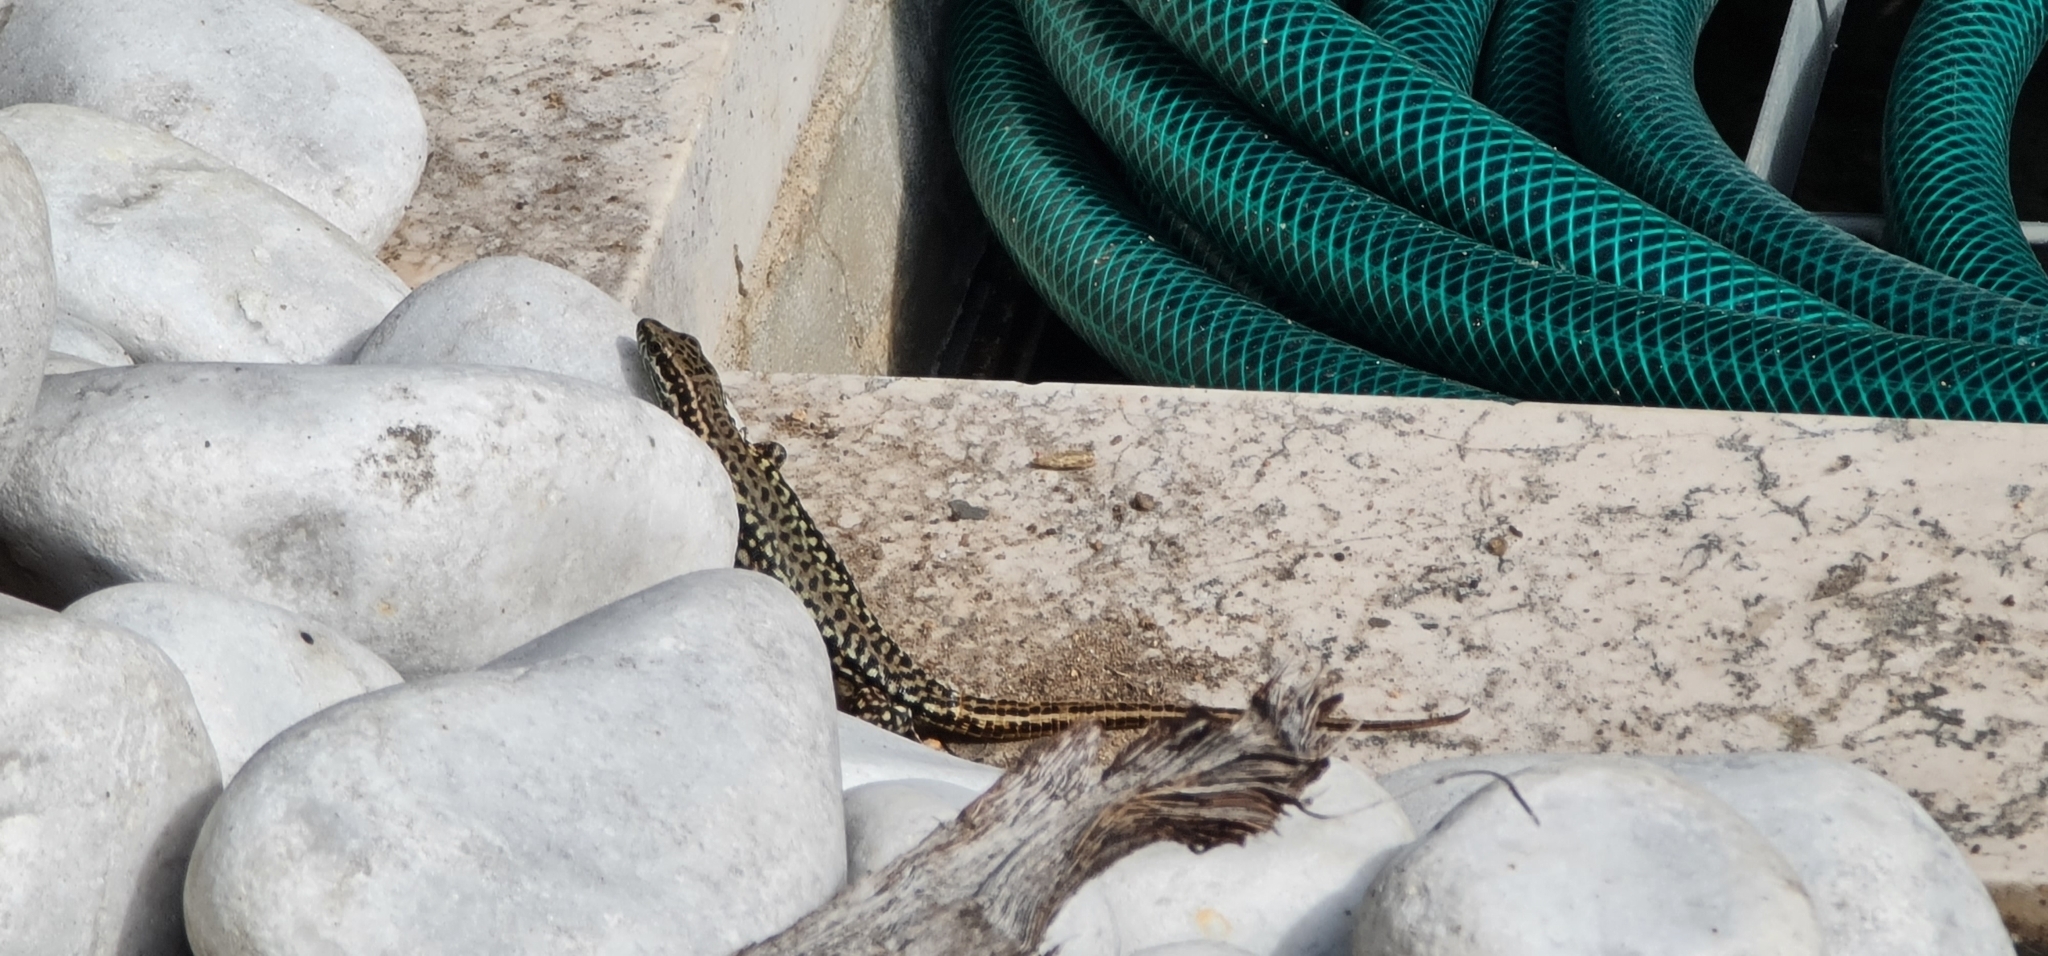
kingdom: Animalia
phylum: Chordata
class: Squamata
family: Lacertidae
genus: Podarcis
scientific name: Podarcis muralis
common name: Common wall lizard
